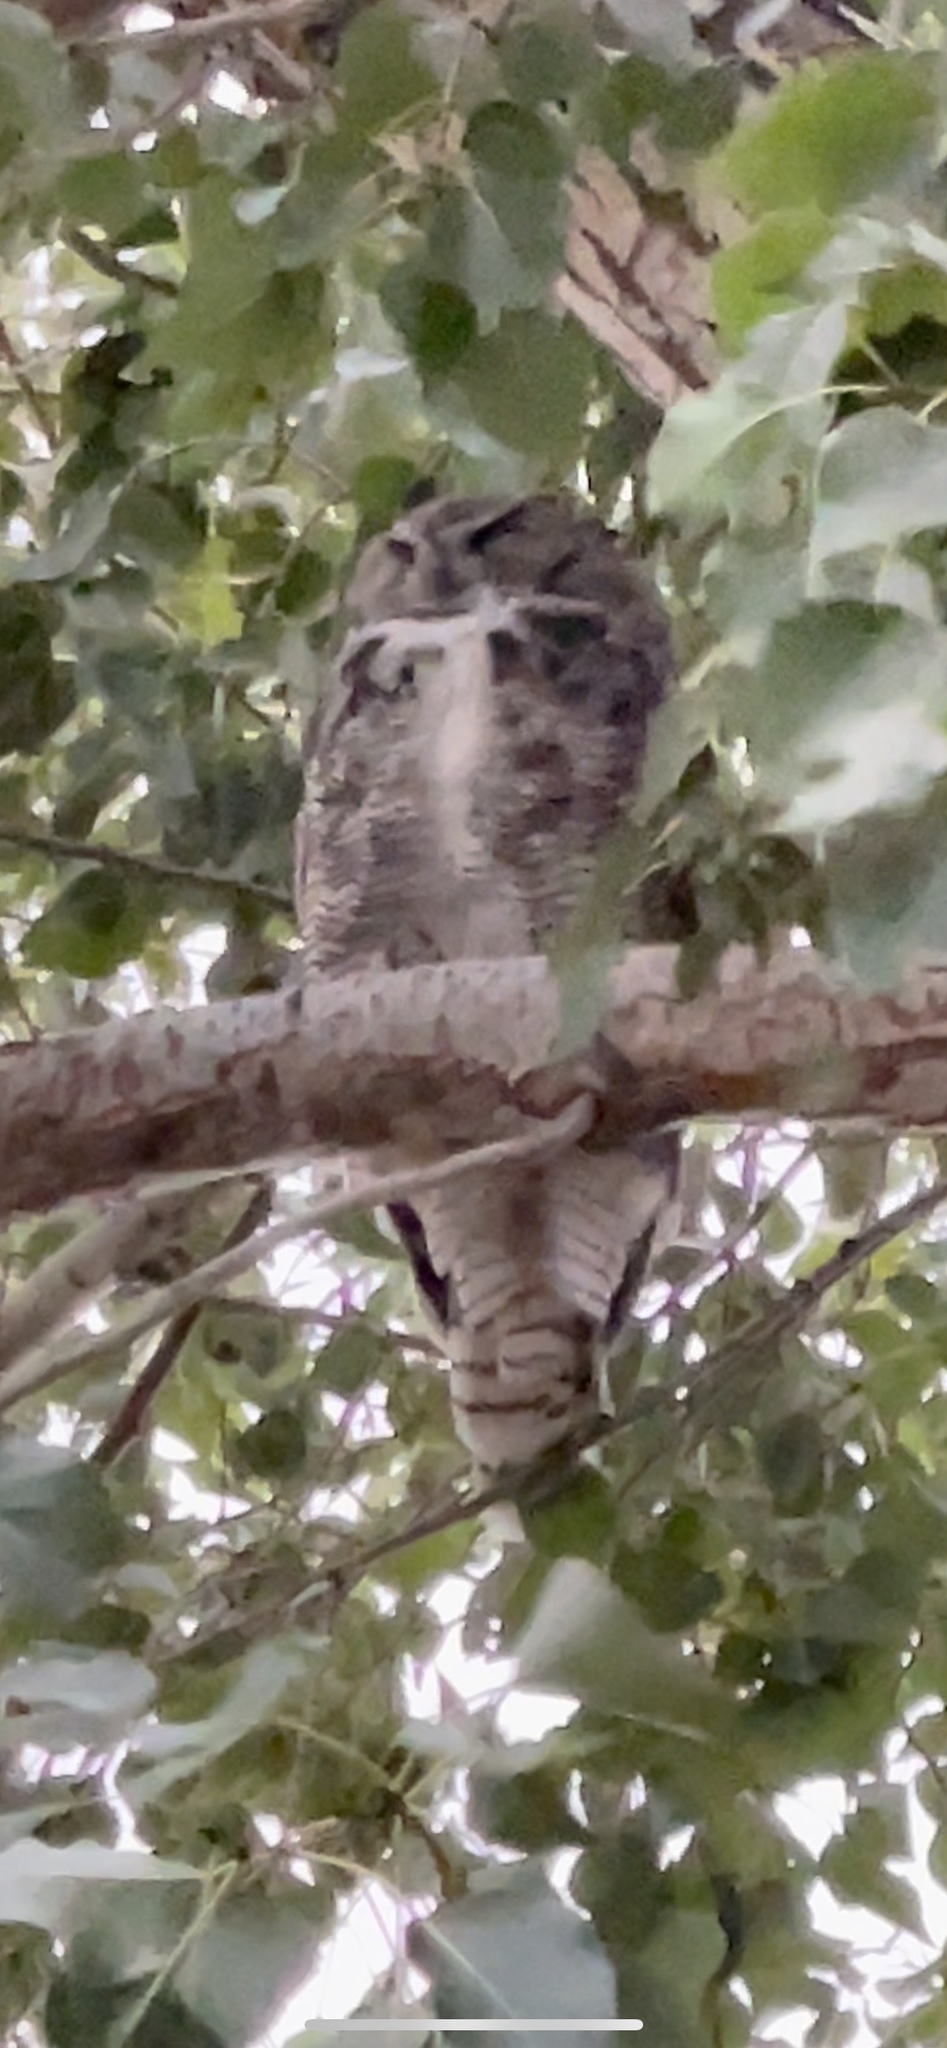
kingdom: Animalia
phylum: Chordata
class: Aves
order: Strigiformes
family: Strigidae
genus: Bubo
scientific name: Bubo virginianus
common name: Great horned owl
